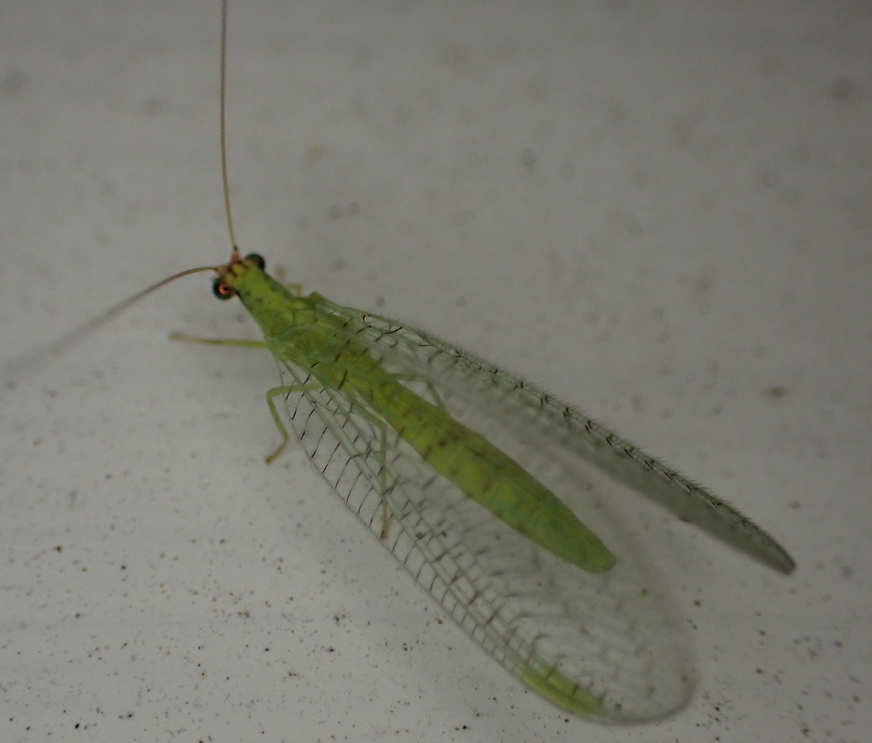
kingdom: Animalia
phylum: Arthropoda
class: Insecta
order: Neuroptera
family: Chrysopidae
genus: Chrysopa
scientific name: Chrysopa oculata
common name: Golden-eyed lacewing
